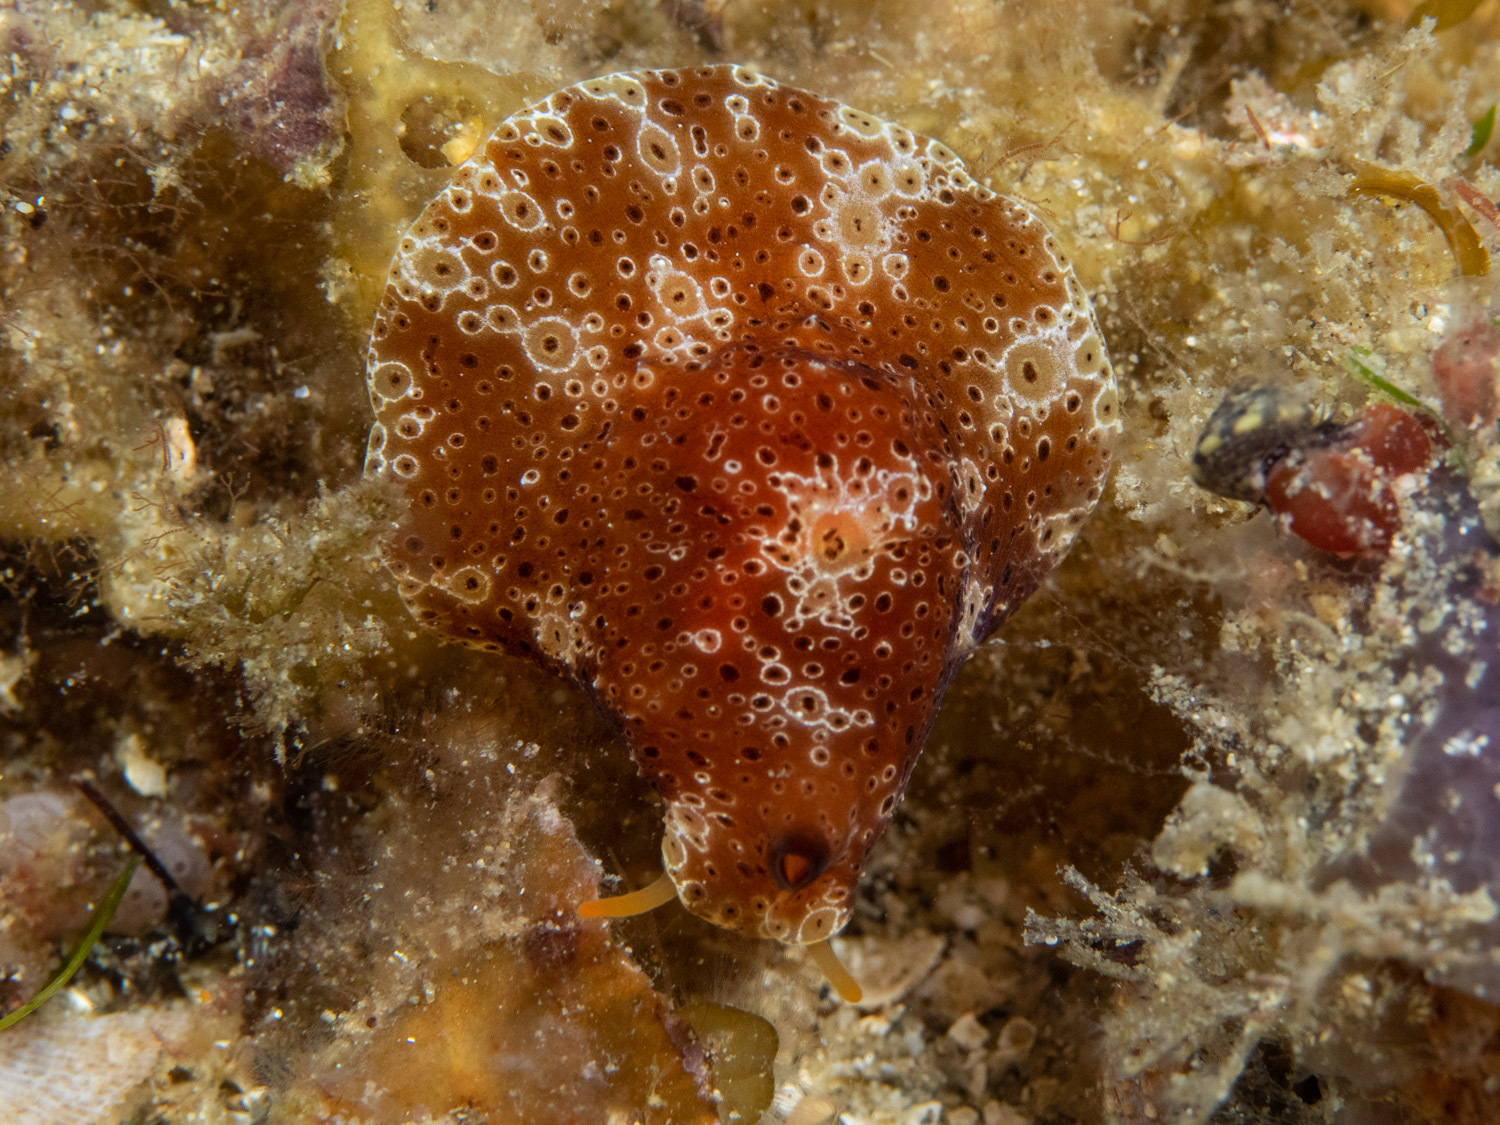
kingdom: Animalia
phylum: Mollusca
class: Gastropoda
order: Littorinimorpha
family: Velutinidae
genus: Djiboutia
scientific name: Djiboutia australis
